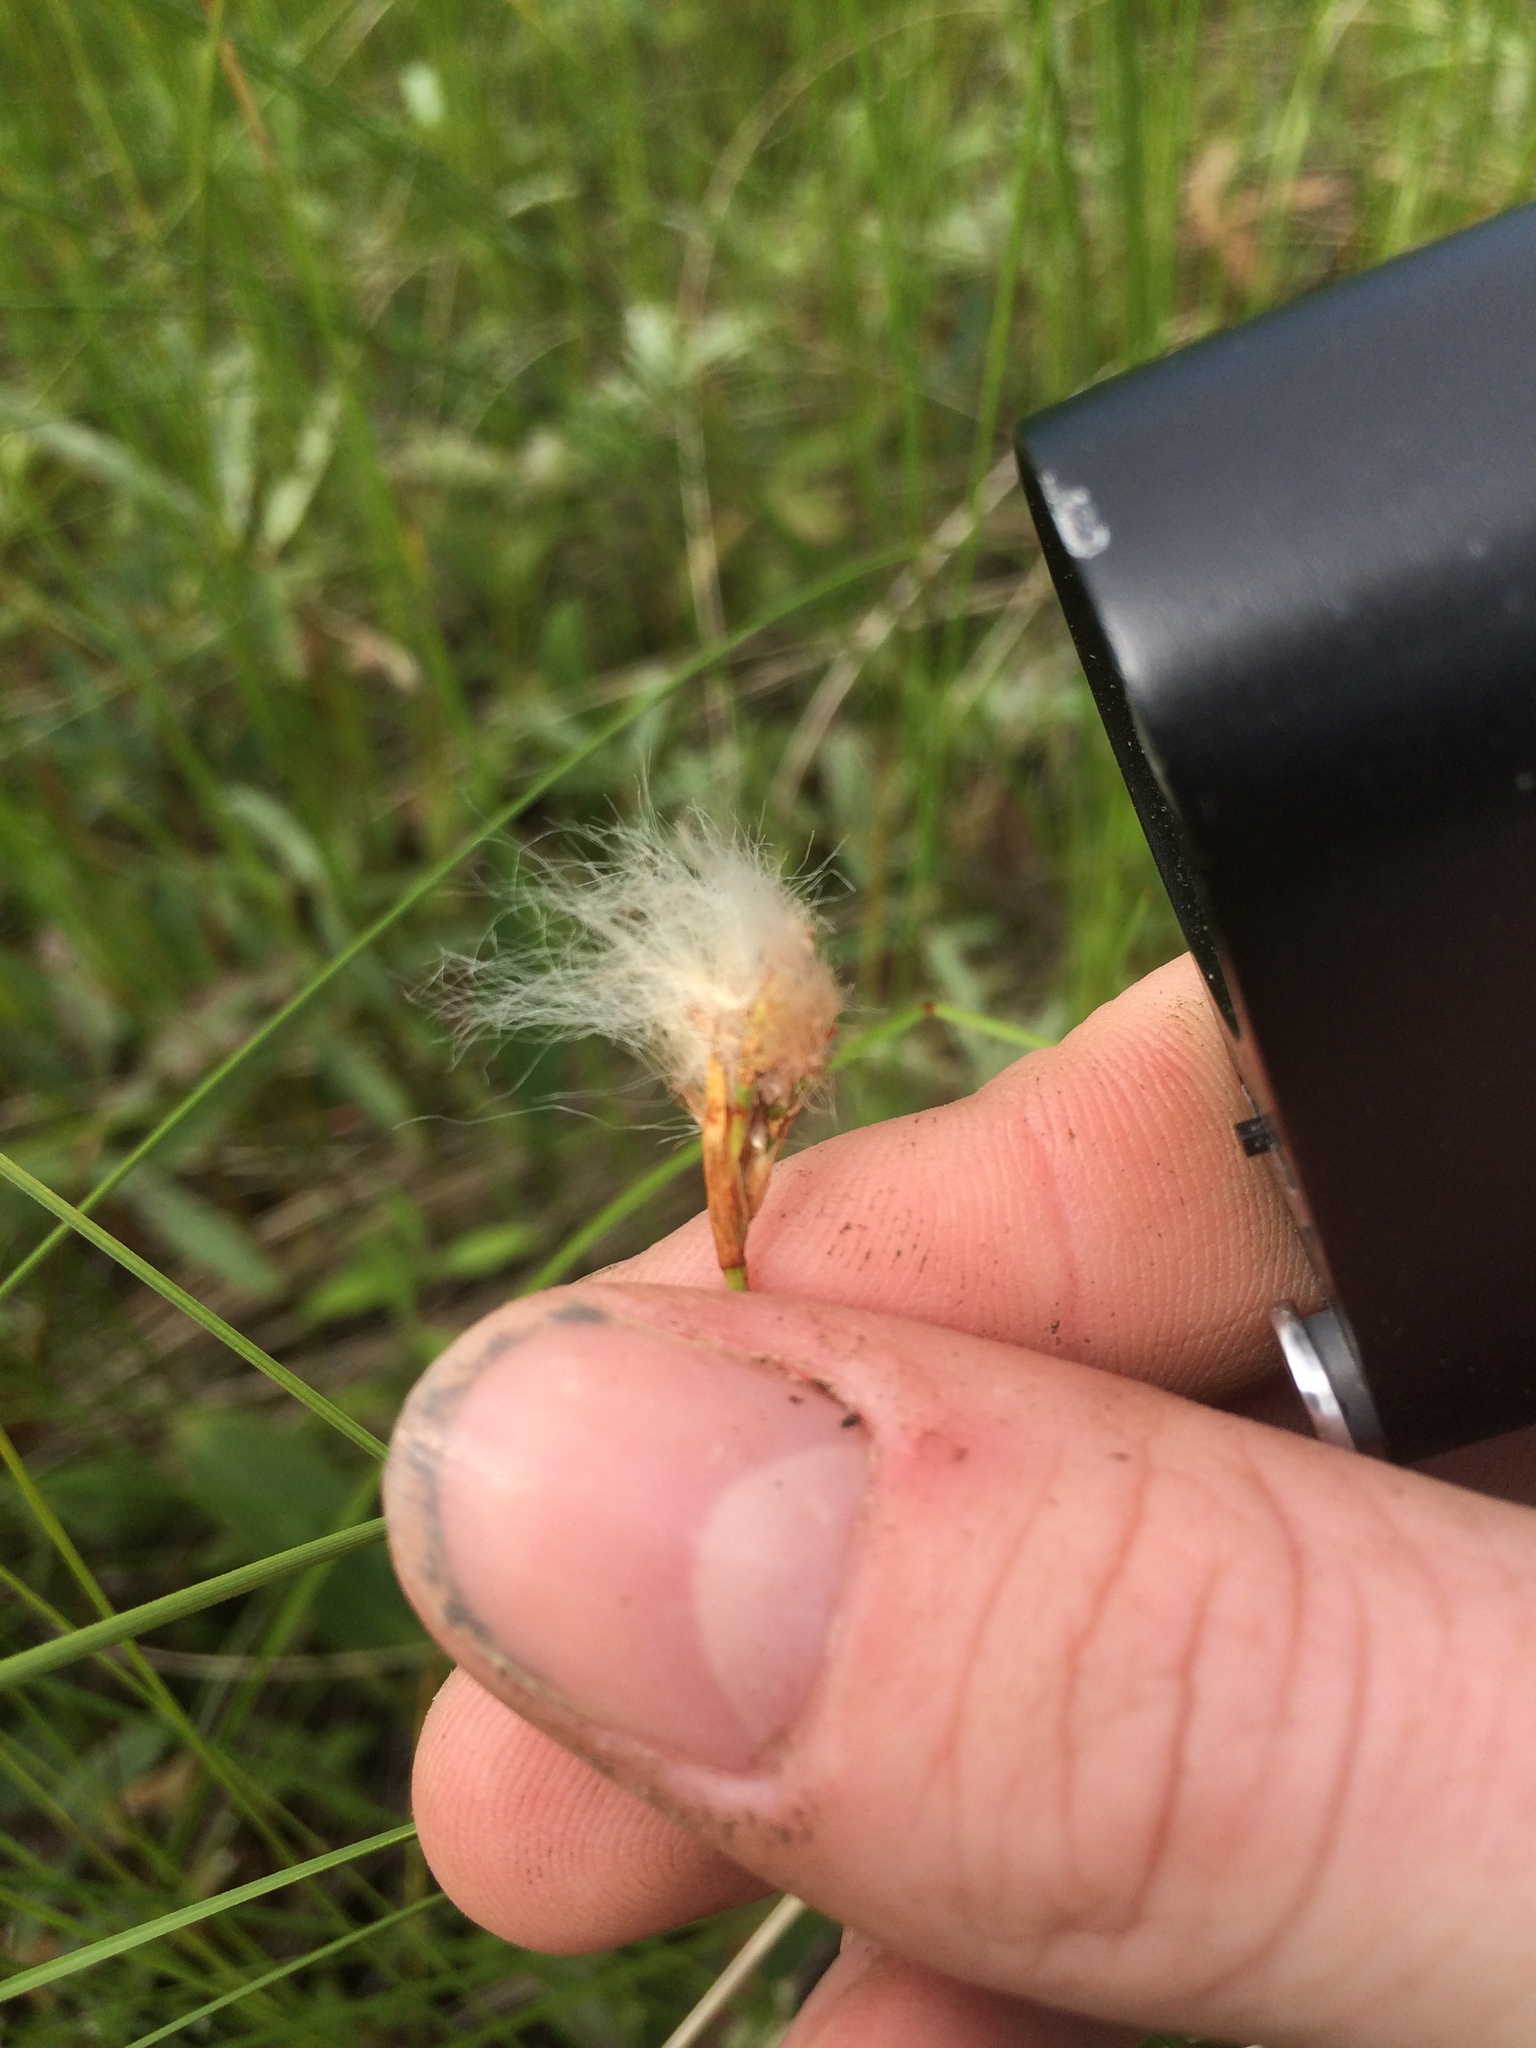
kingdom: Plantae
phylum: Tracheophyta
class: Liliopsida
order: Poales
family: Cyperaceae
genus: Eriophorum
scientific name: Eriophorum tenellum
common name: Few-nerved cottongrass
